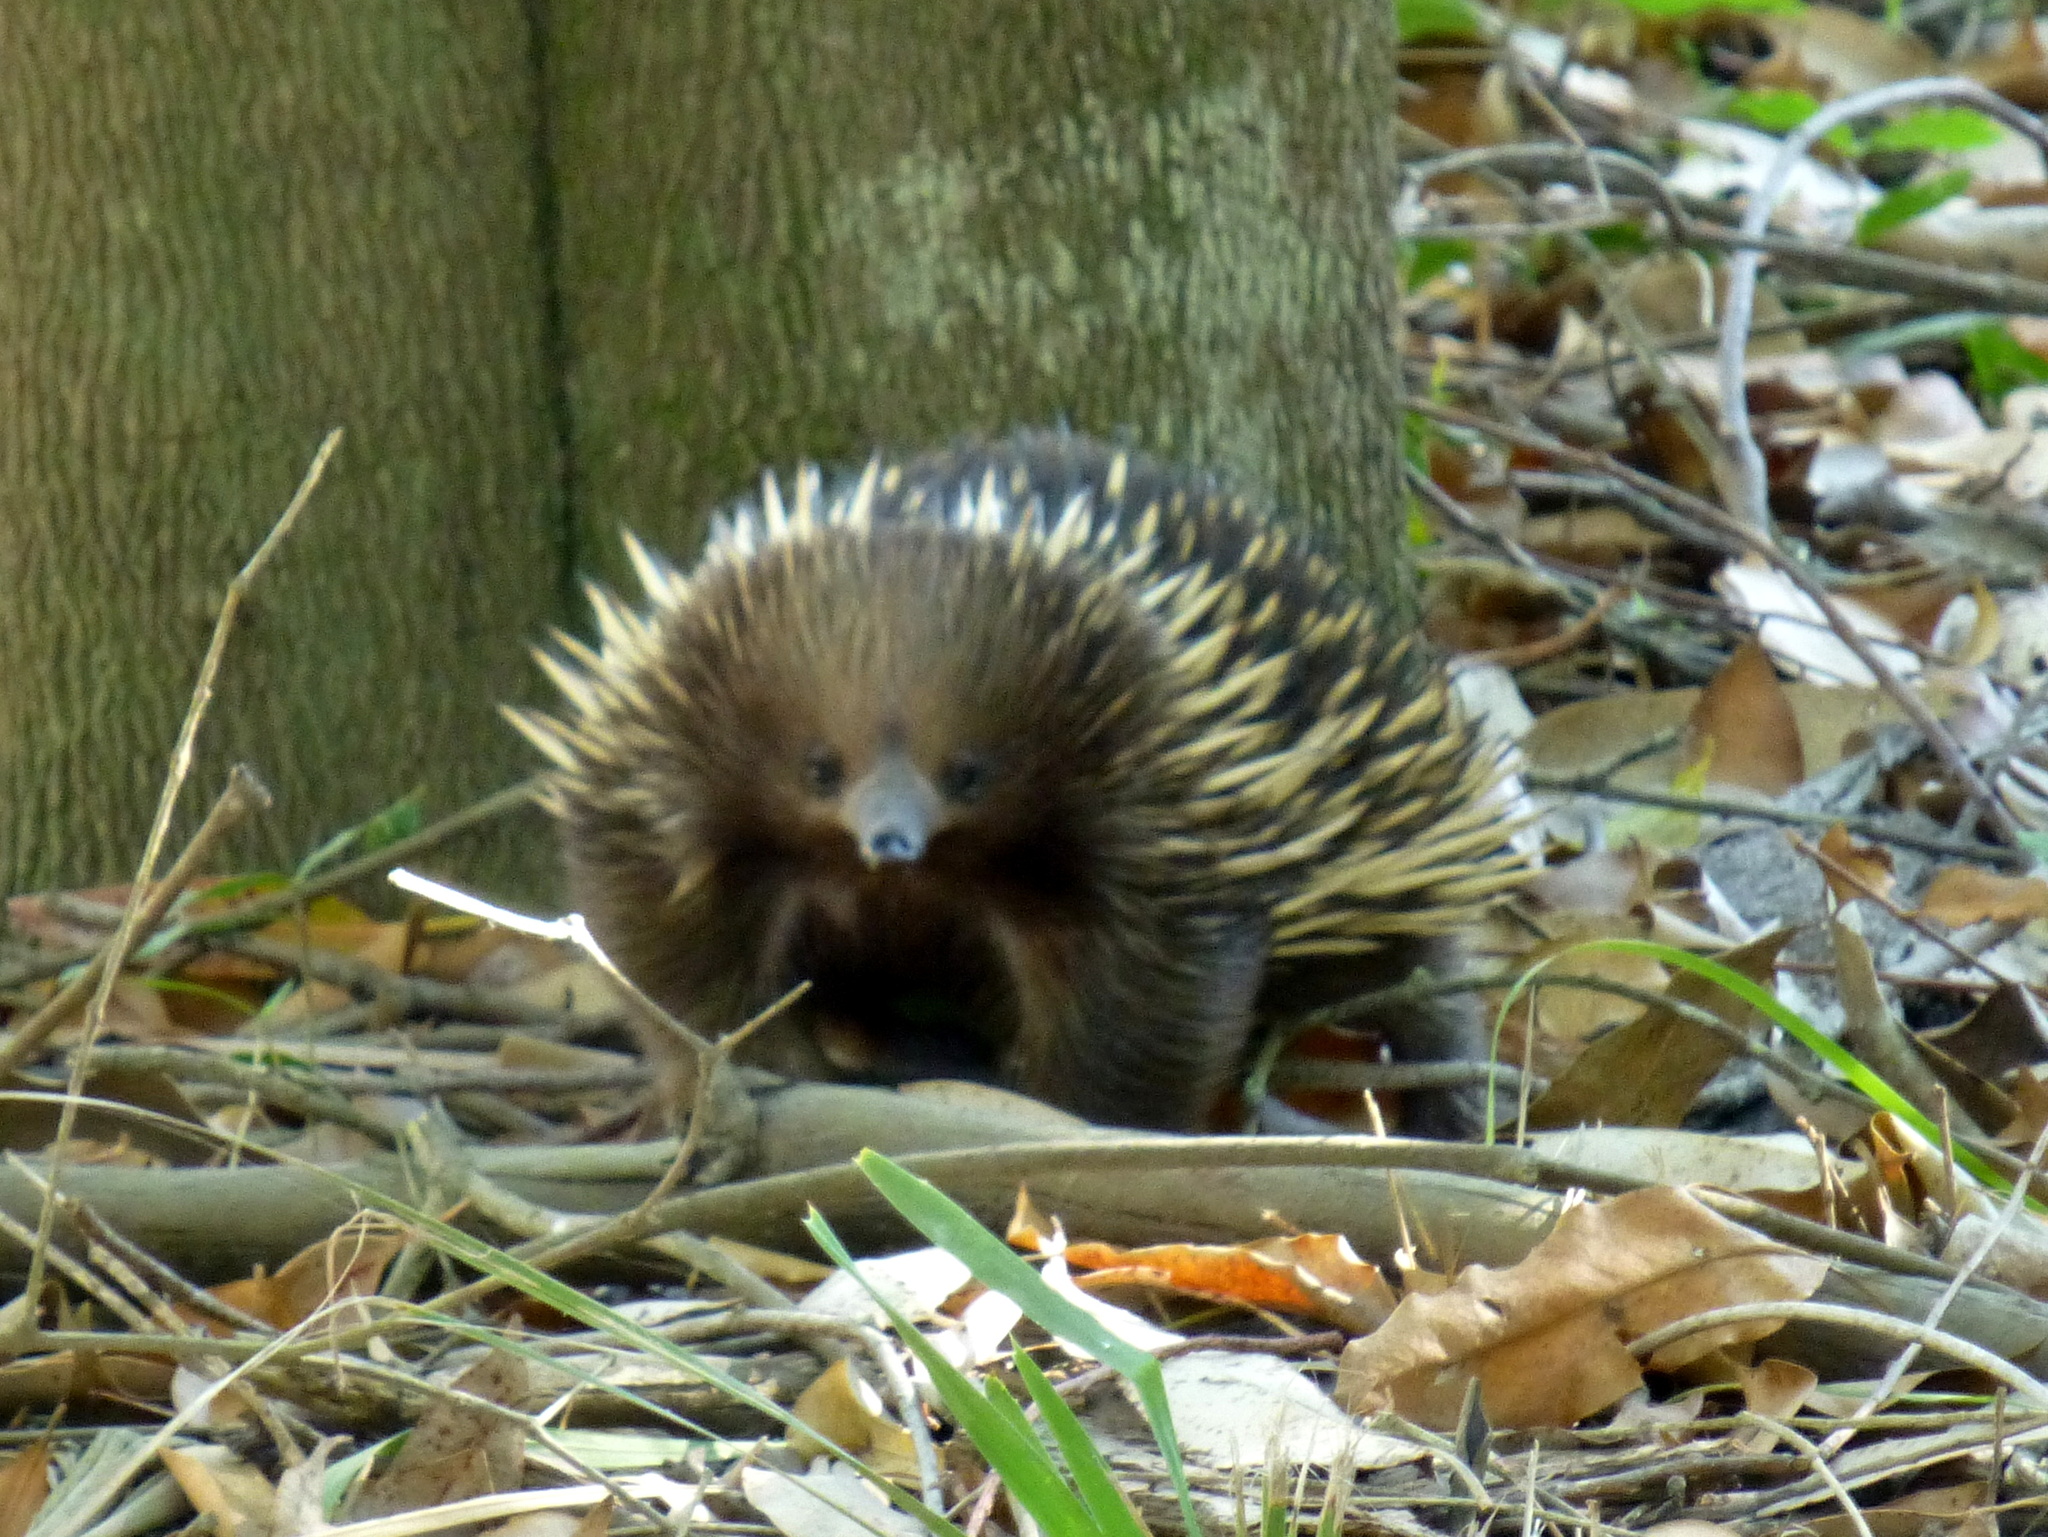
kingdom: Animalia
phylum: Chordata
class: Mammalia
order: Monotremata
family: Tachyglossidae
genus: Tachyglossus
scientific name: Tachyglossus aculeatus
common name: Short-beaked echidna
